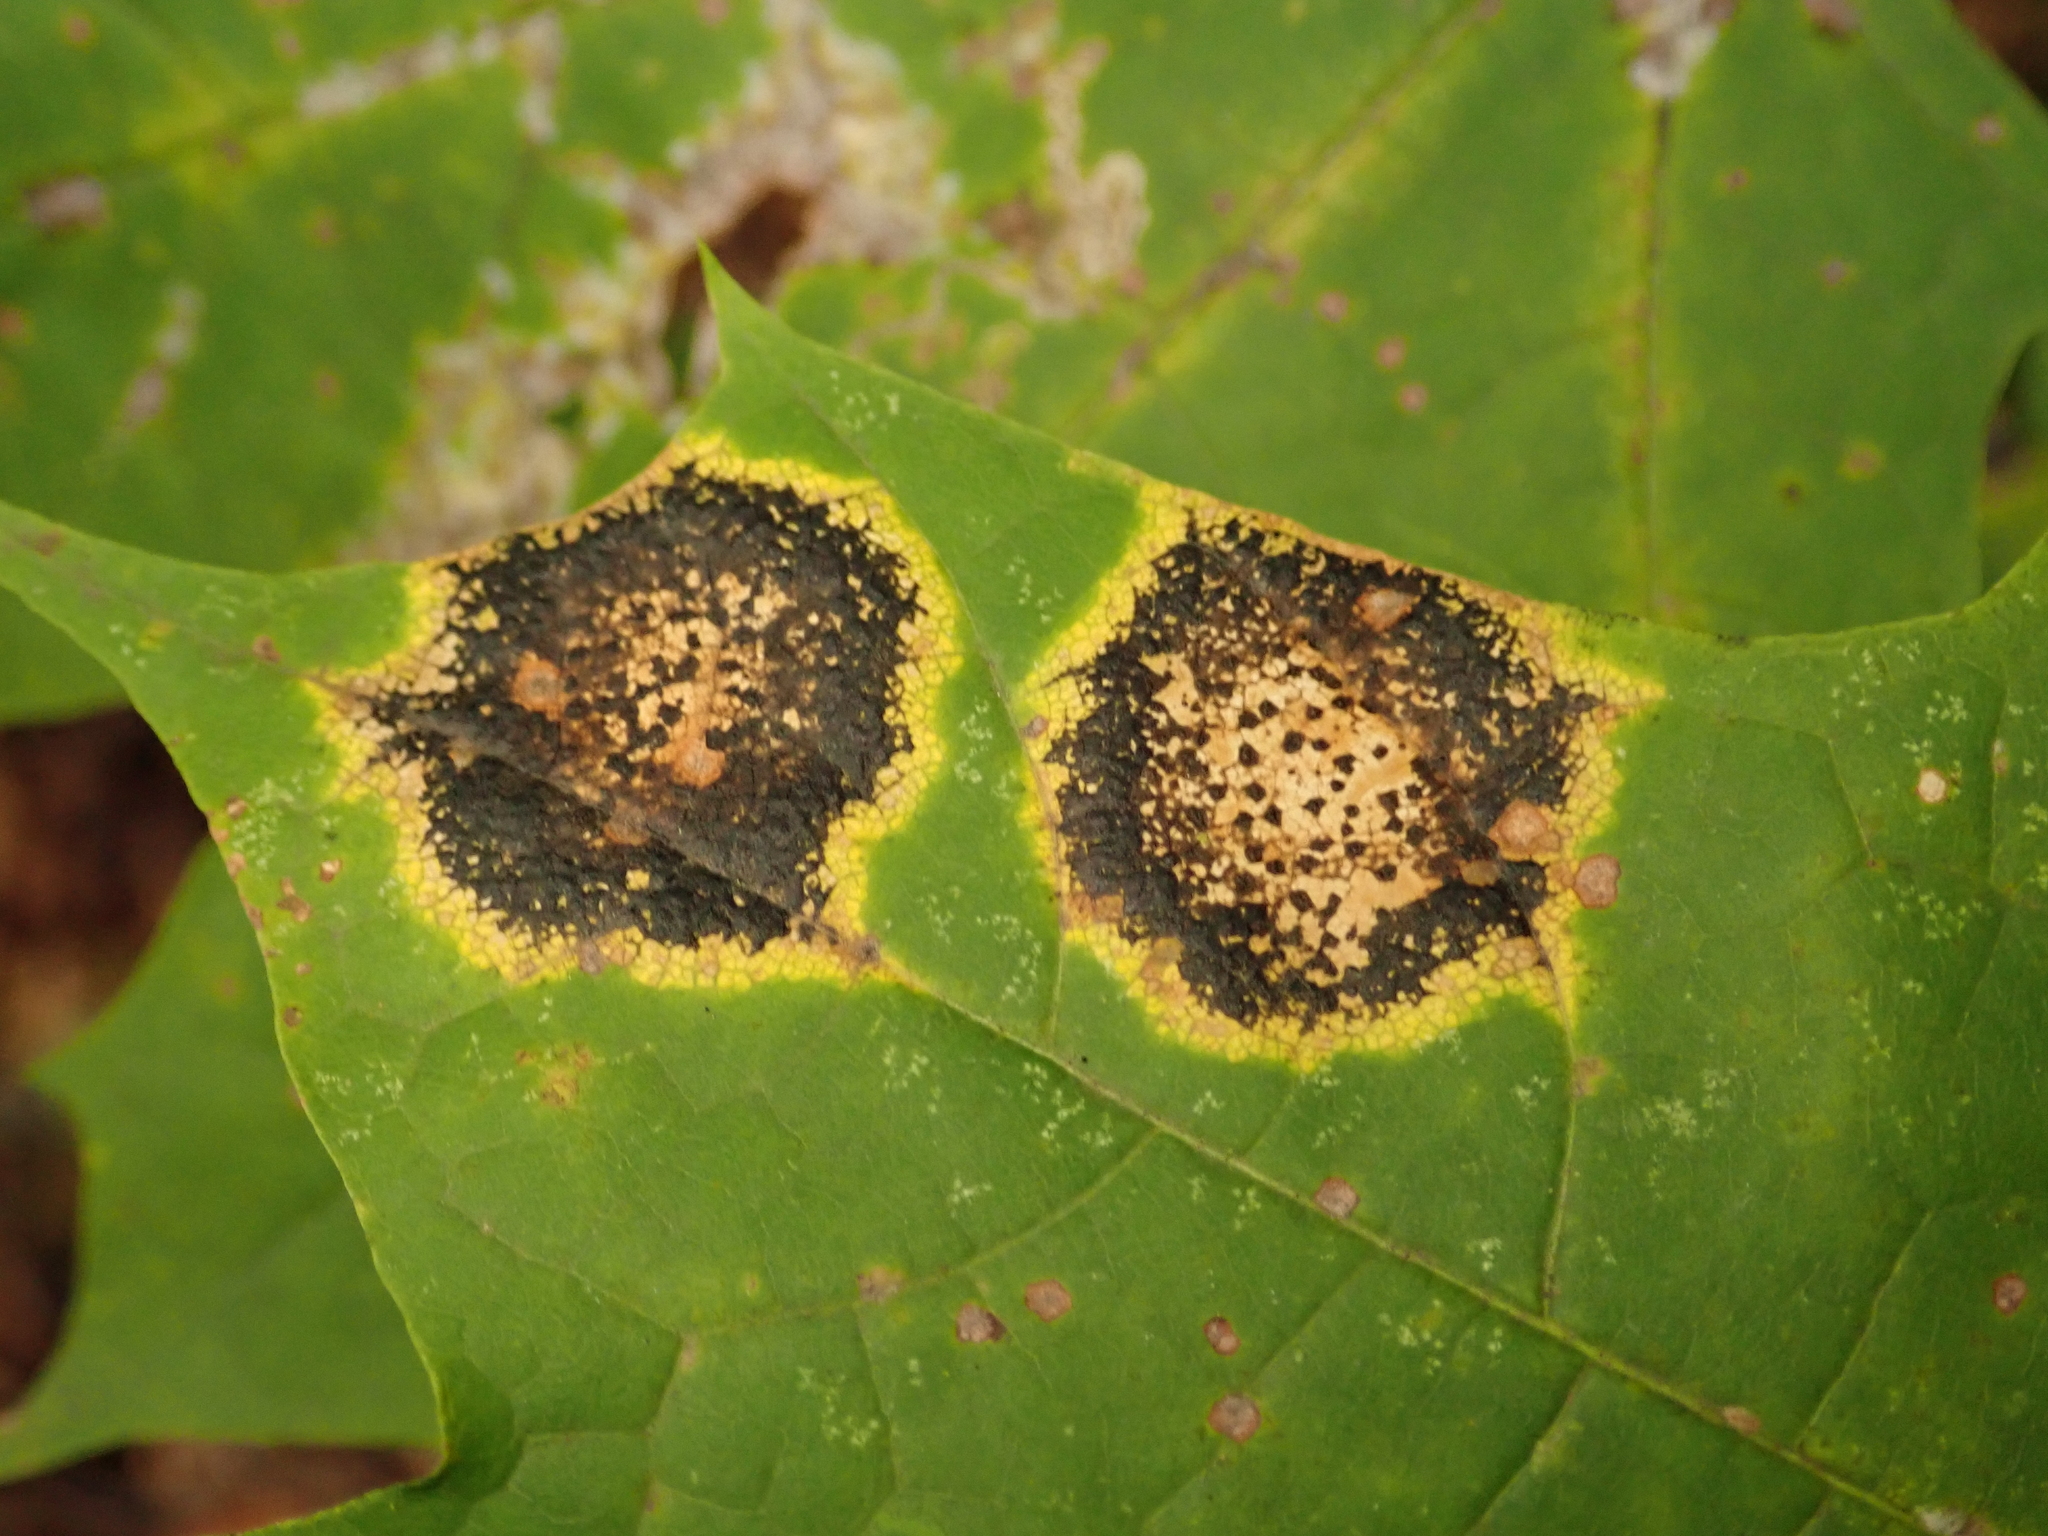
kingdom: Fungi
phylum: Ascomycota
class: Leotiomycetes
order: Rhytismatales
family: Rhytismataceae
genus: Rhytisma
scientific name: Rhytisma acerinum
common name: European tar spot
